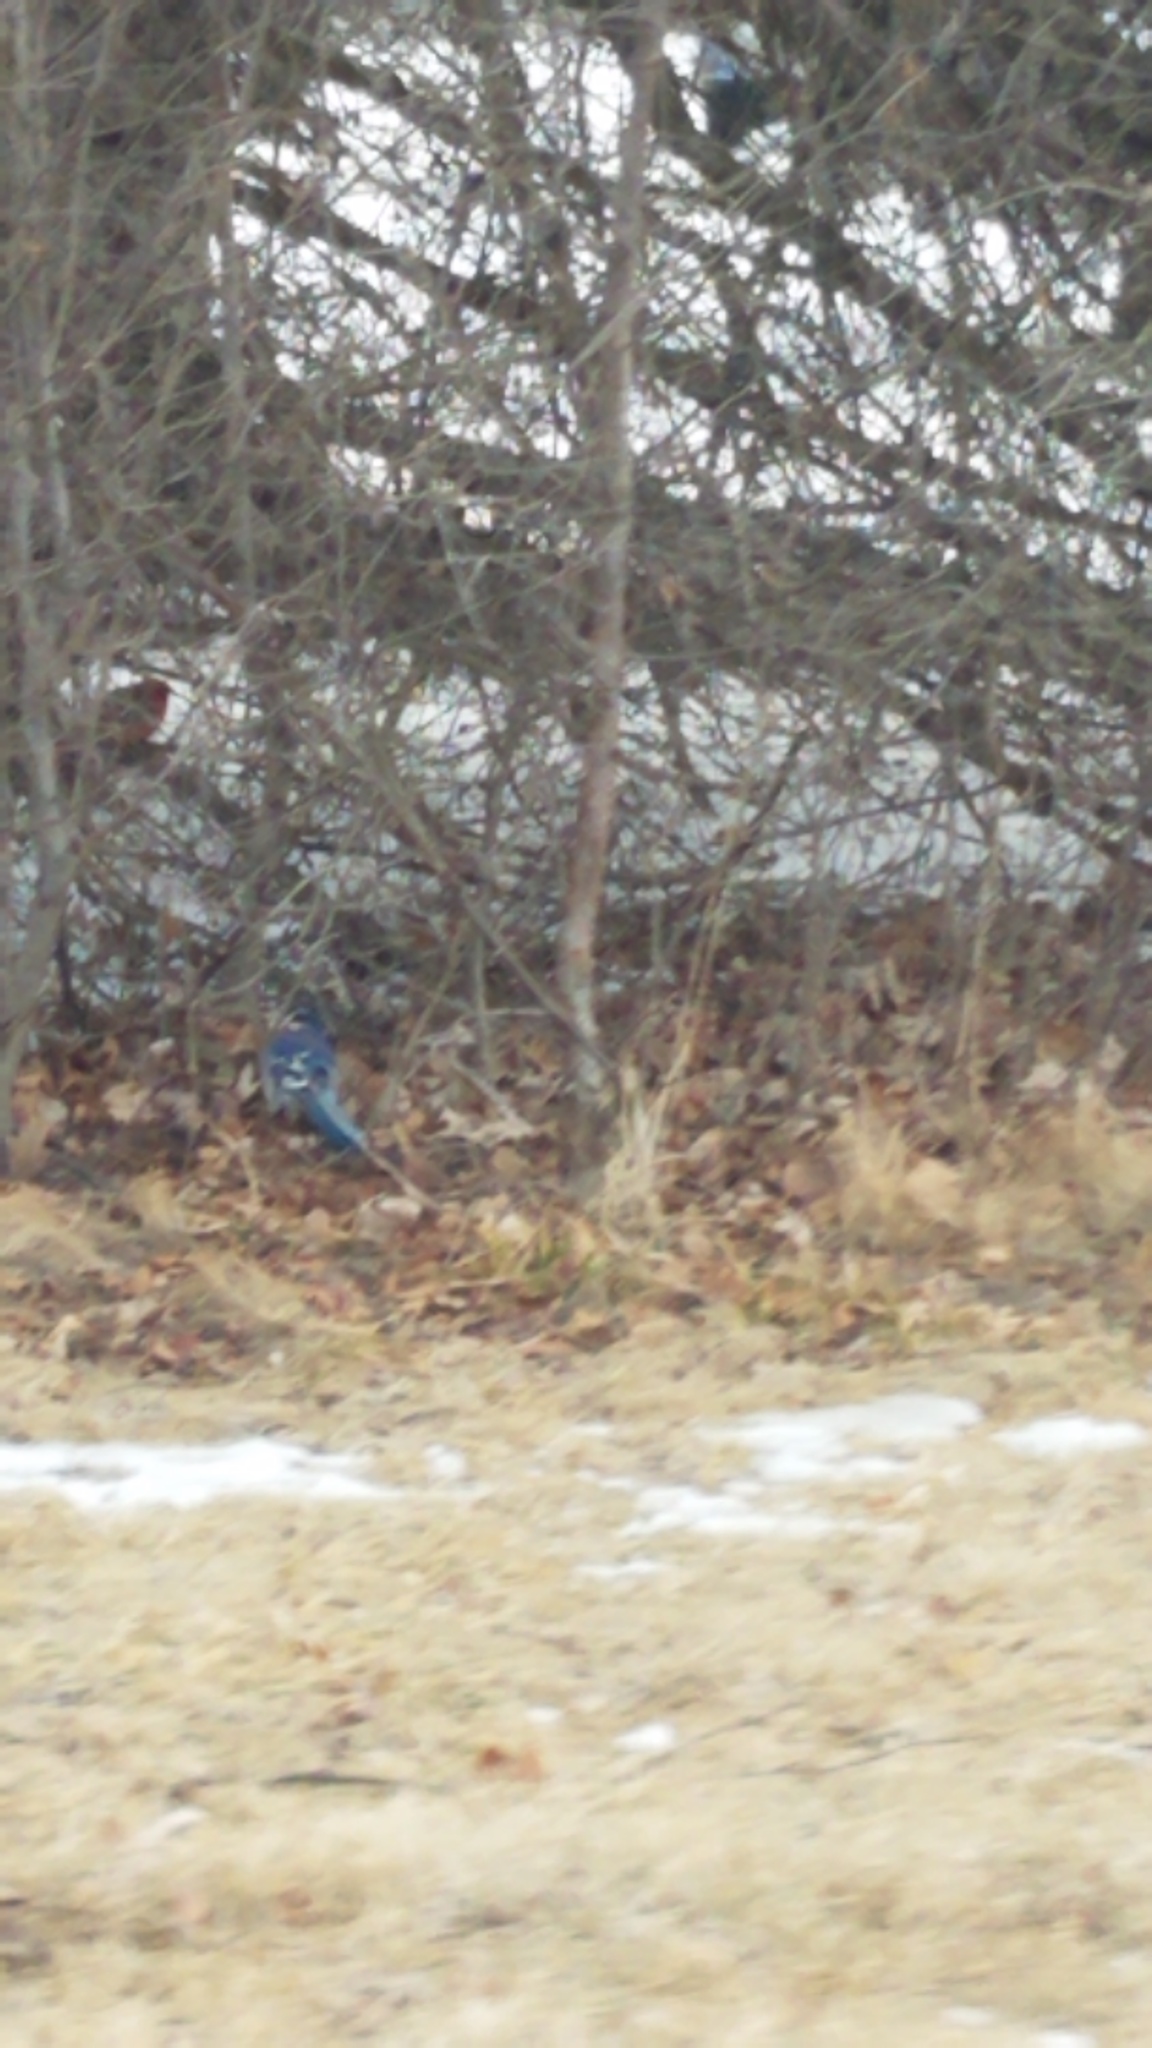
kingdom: Animalia
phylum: Chordata
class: Aves
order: Passeriformes
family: Cardinalidae
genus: Cardinalis
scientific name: Cardinalis cardinalis
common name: Northern cardinal
